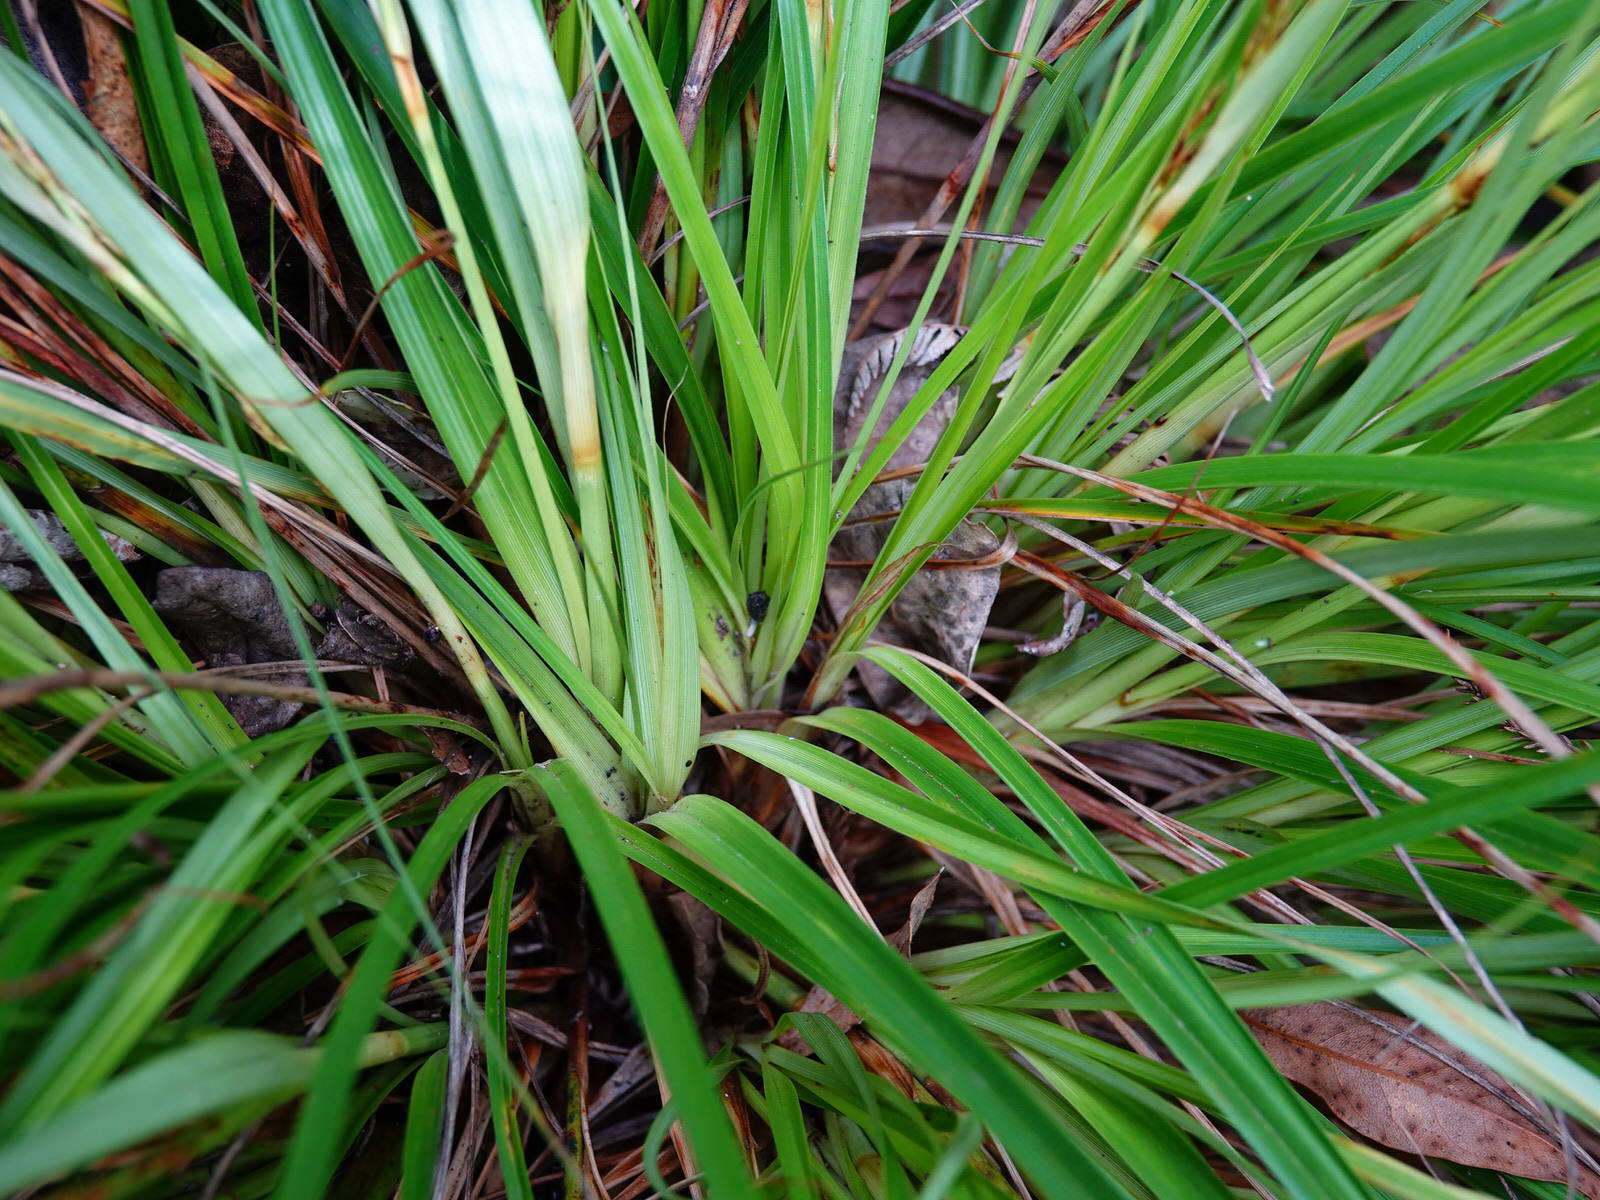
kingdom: Plantae
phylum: Tracheophyta
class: Liliopsida
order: Poales
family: Cyperaceae
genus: Morelotia
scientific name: Morelotia affinis
